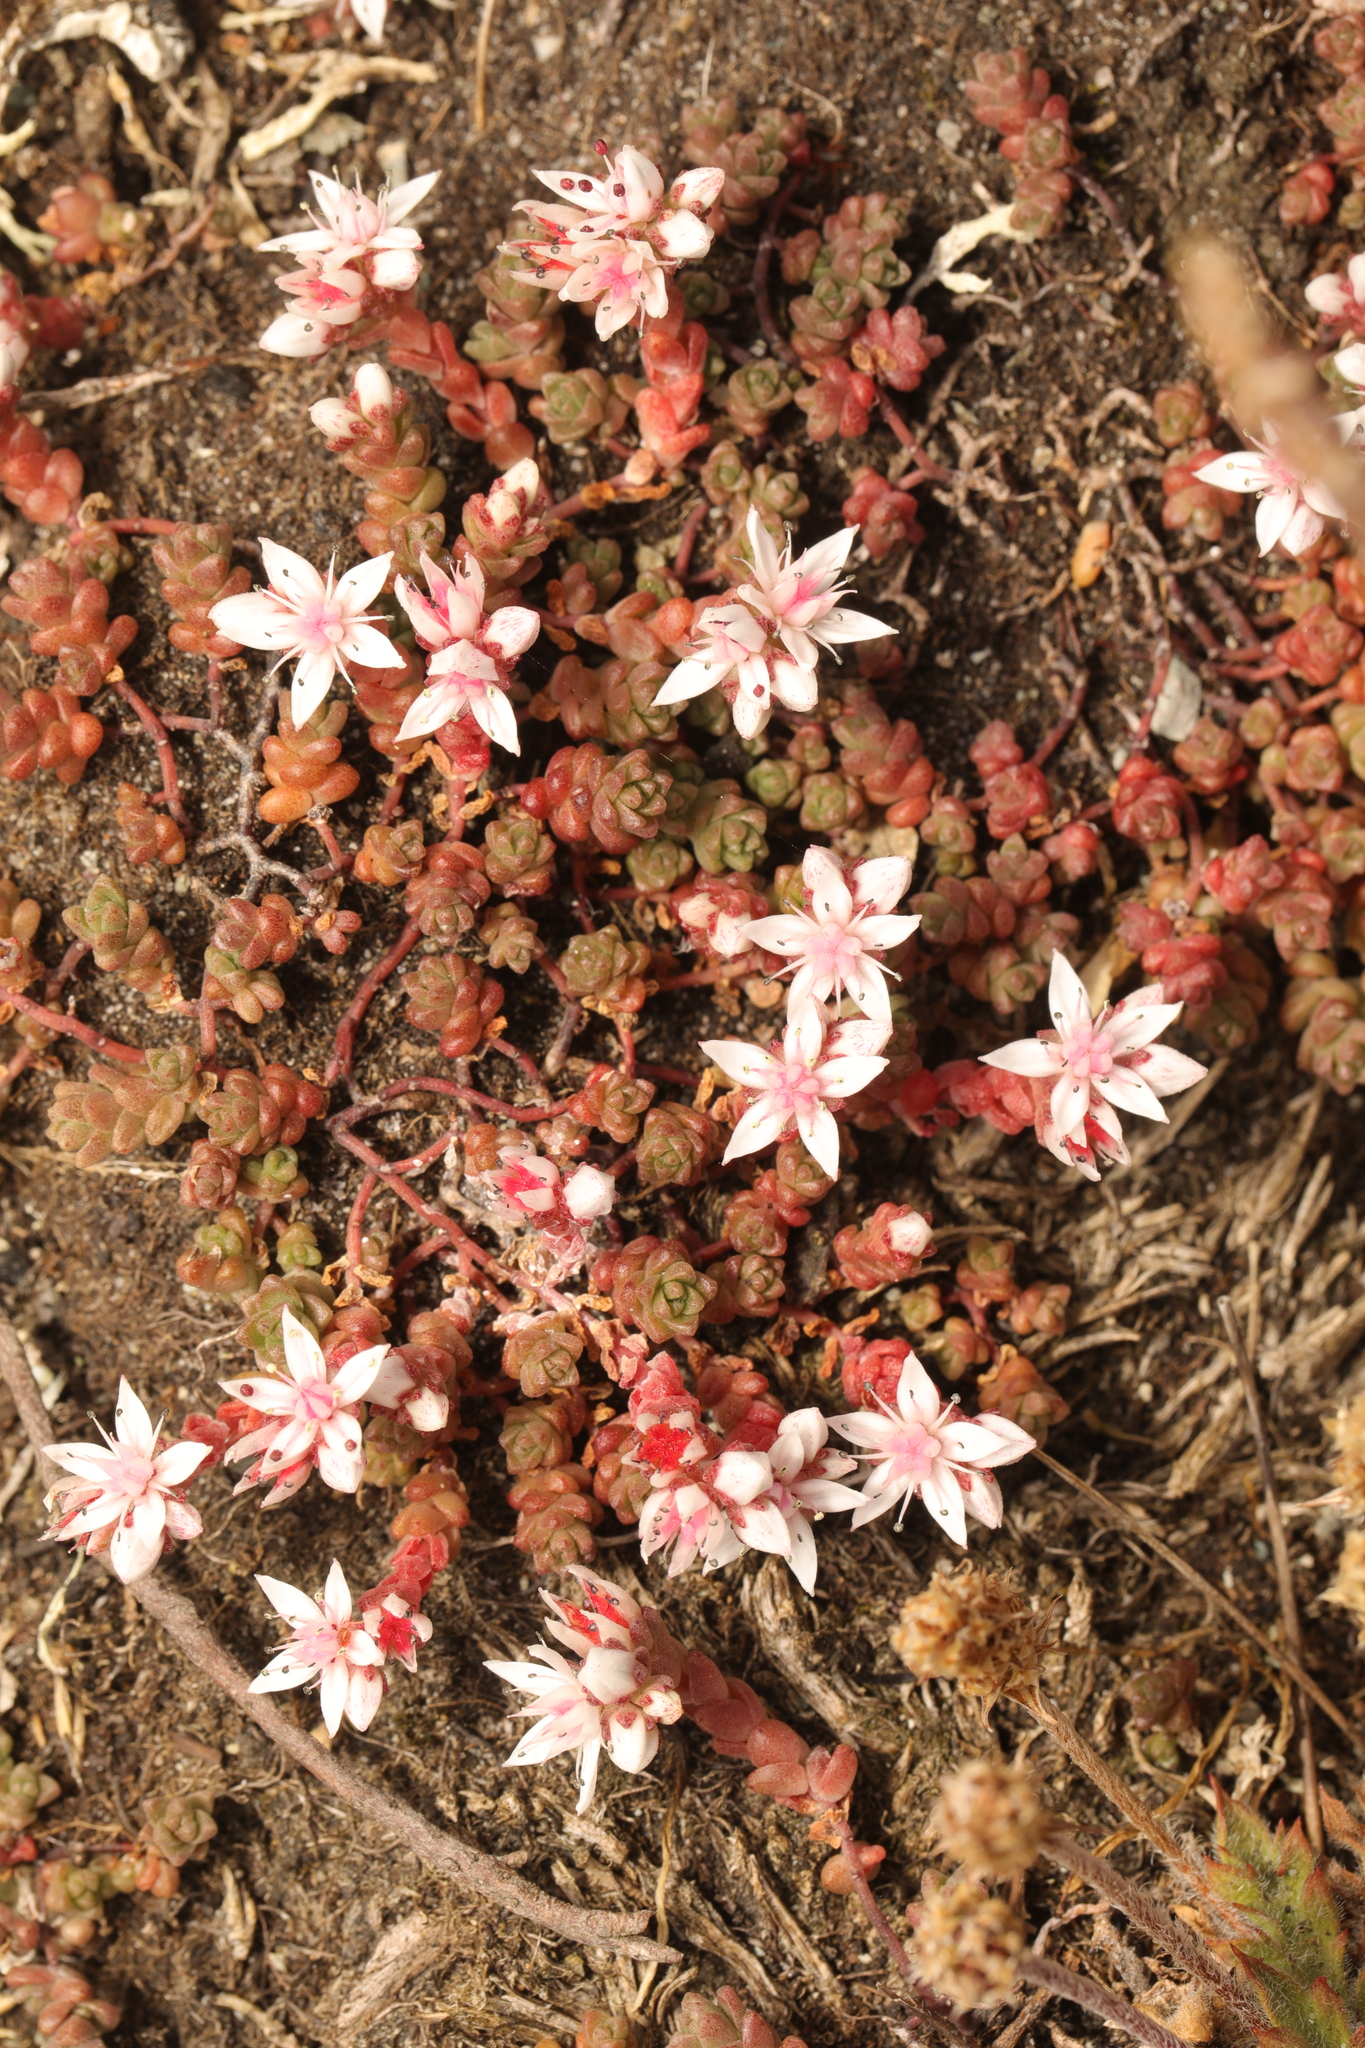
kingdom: Plantae
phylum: Tracheophyta
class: Magnoliopsida
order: Saxifragales
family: Crassulaceae
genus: Sedum
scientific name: Sedum anglicum
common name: English stonecrop
